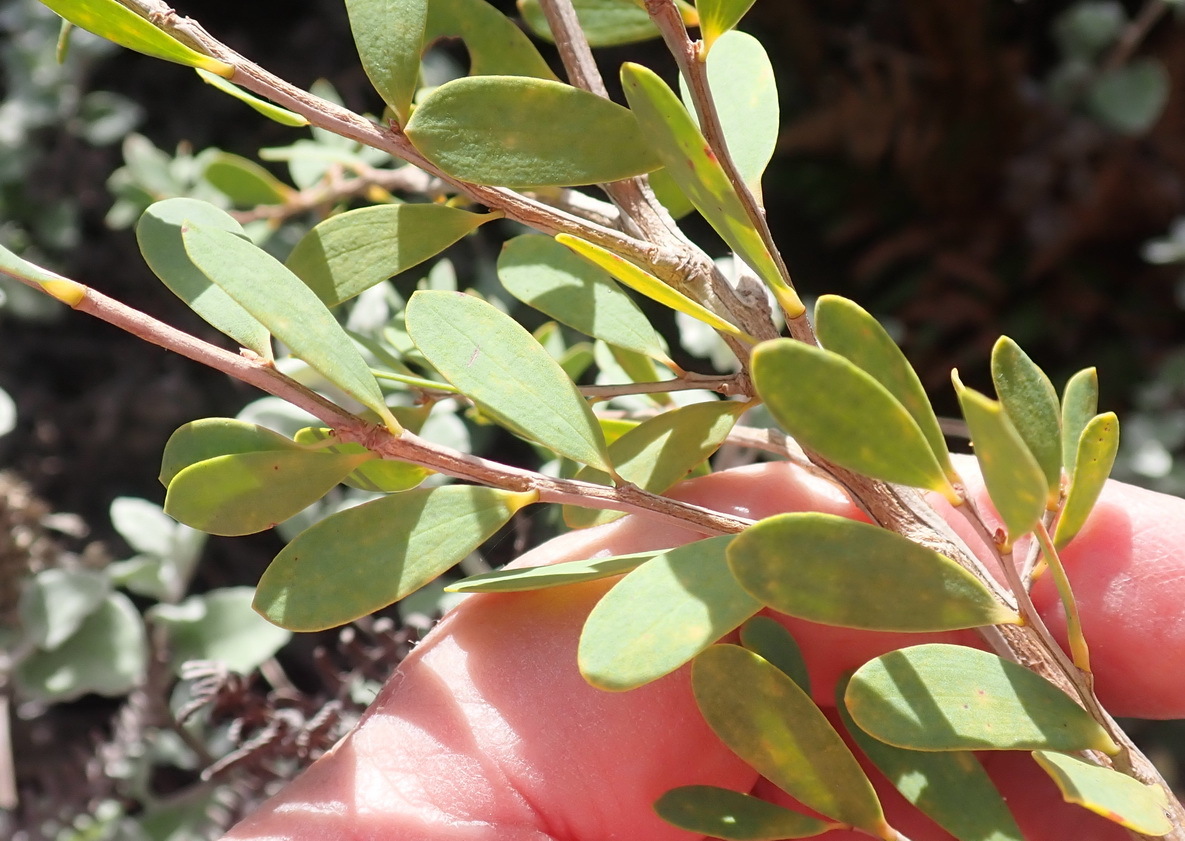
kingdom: Plantae
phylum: Tracheophyta
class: Magnoliopsida
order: Myrtales
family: Myrtaceae
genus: Leptospermum
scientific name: Leptospermum laevigatum
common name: Australian teatree
